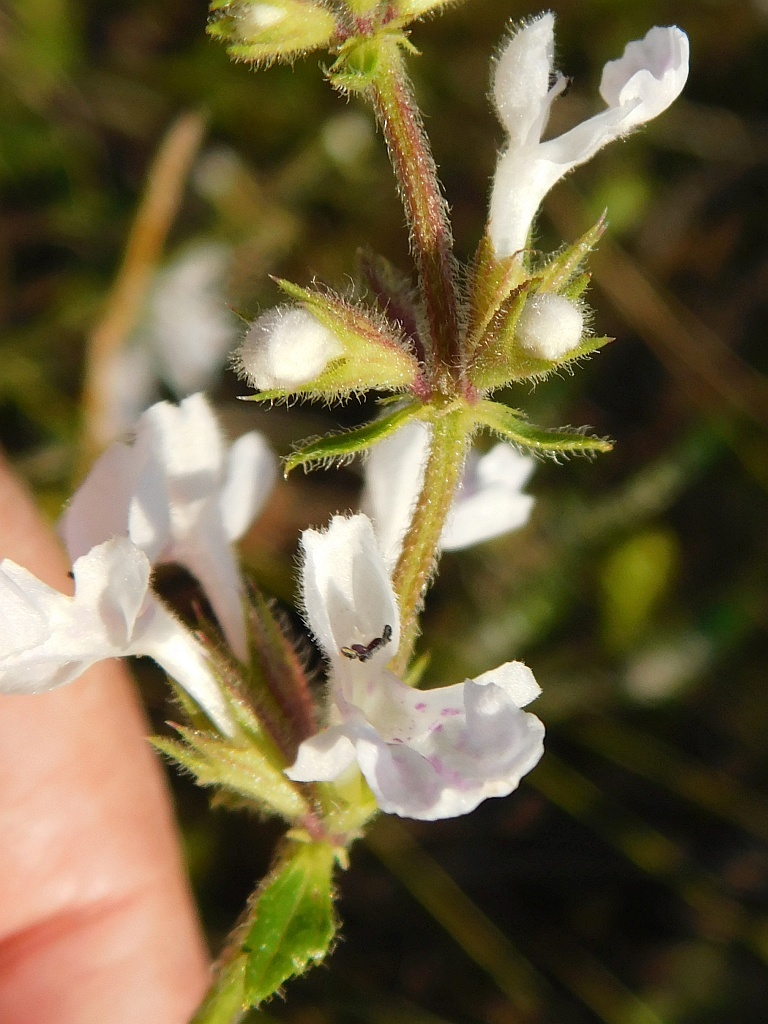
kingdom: Plantae
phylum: Tracheophyta
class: Magnoliopsida
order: Lamiales
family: Lamiaceae
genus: Stachys
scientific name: Stachys aethiopica
